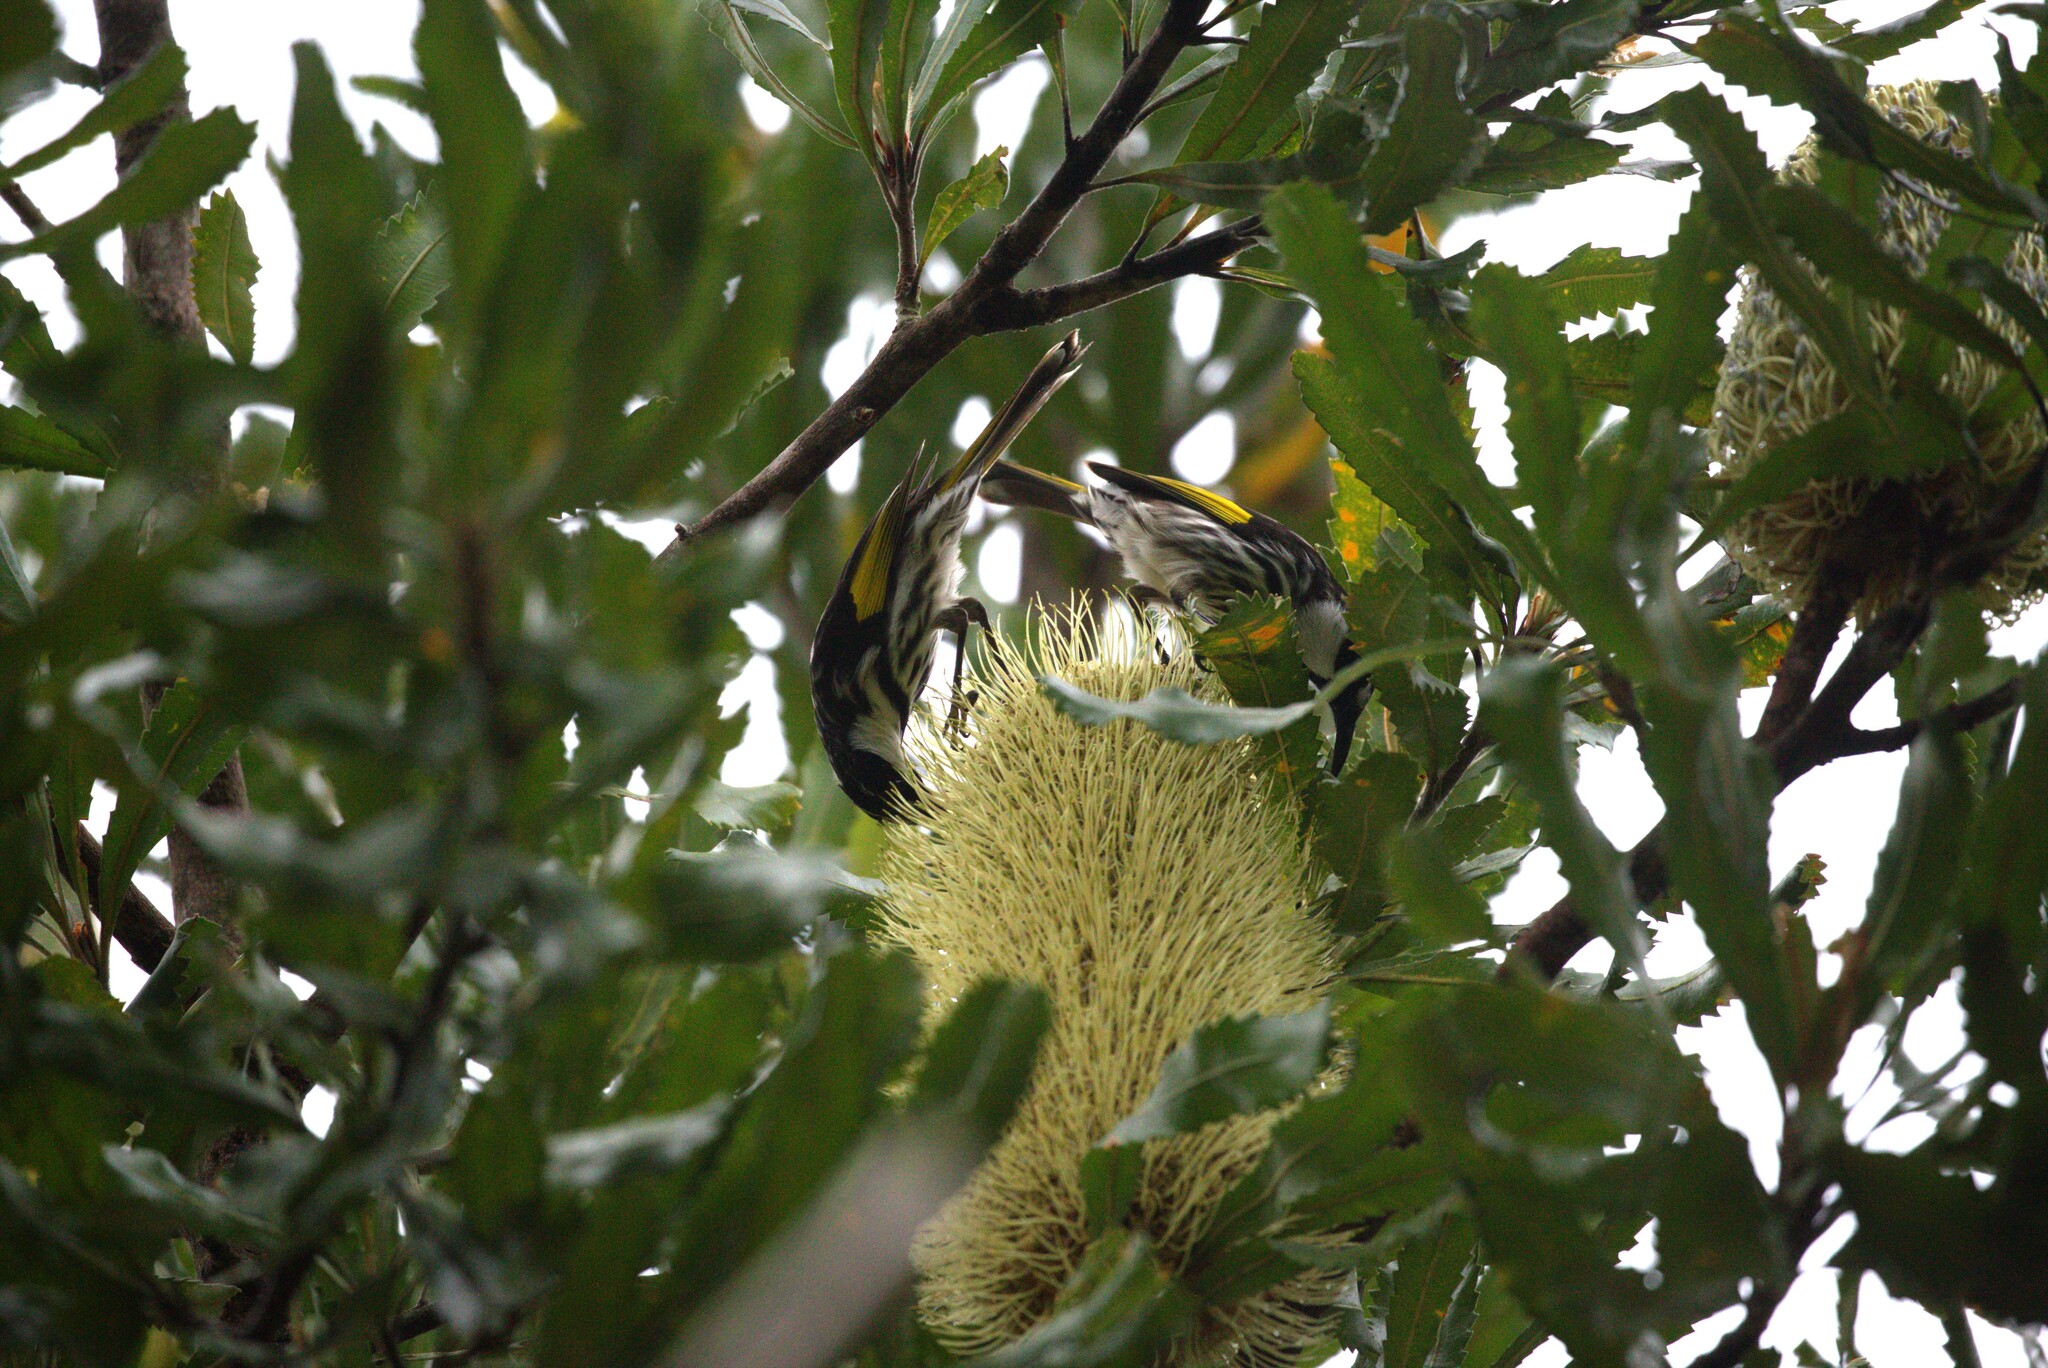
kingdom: Animalia
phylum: Chordata
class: Aves
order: Passeriformes
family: Meliphagidae
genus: Phylidonyris
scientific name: Phylidonyris niger
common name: White-cheeked honeyeater
